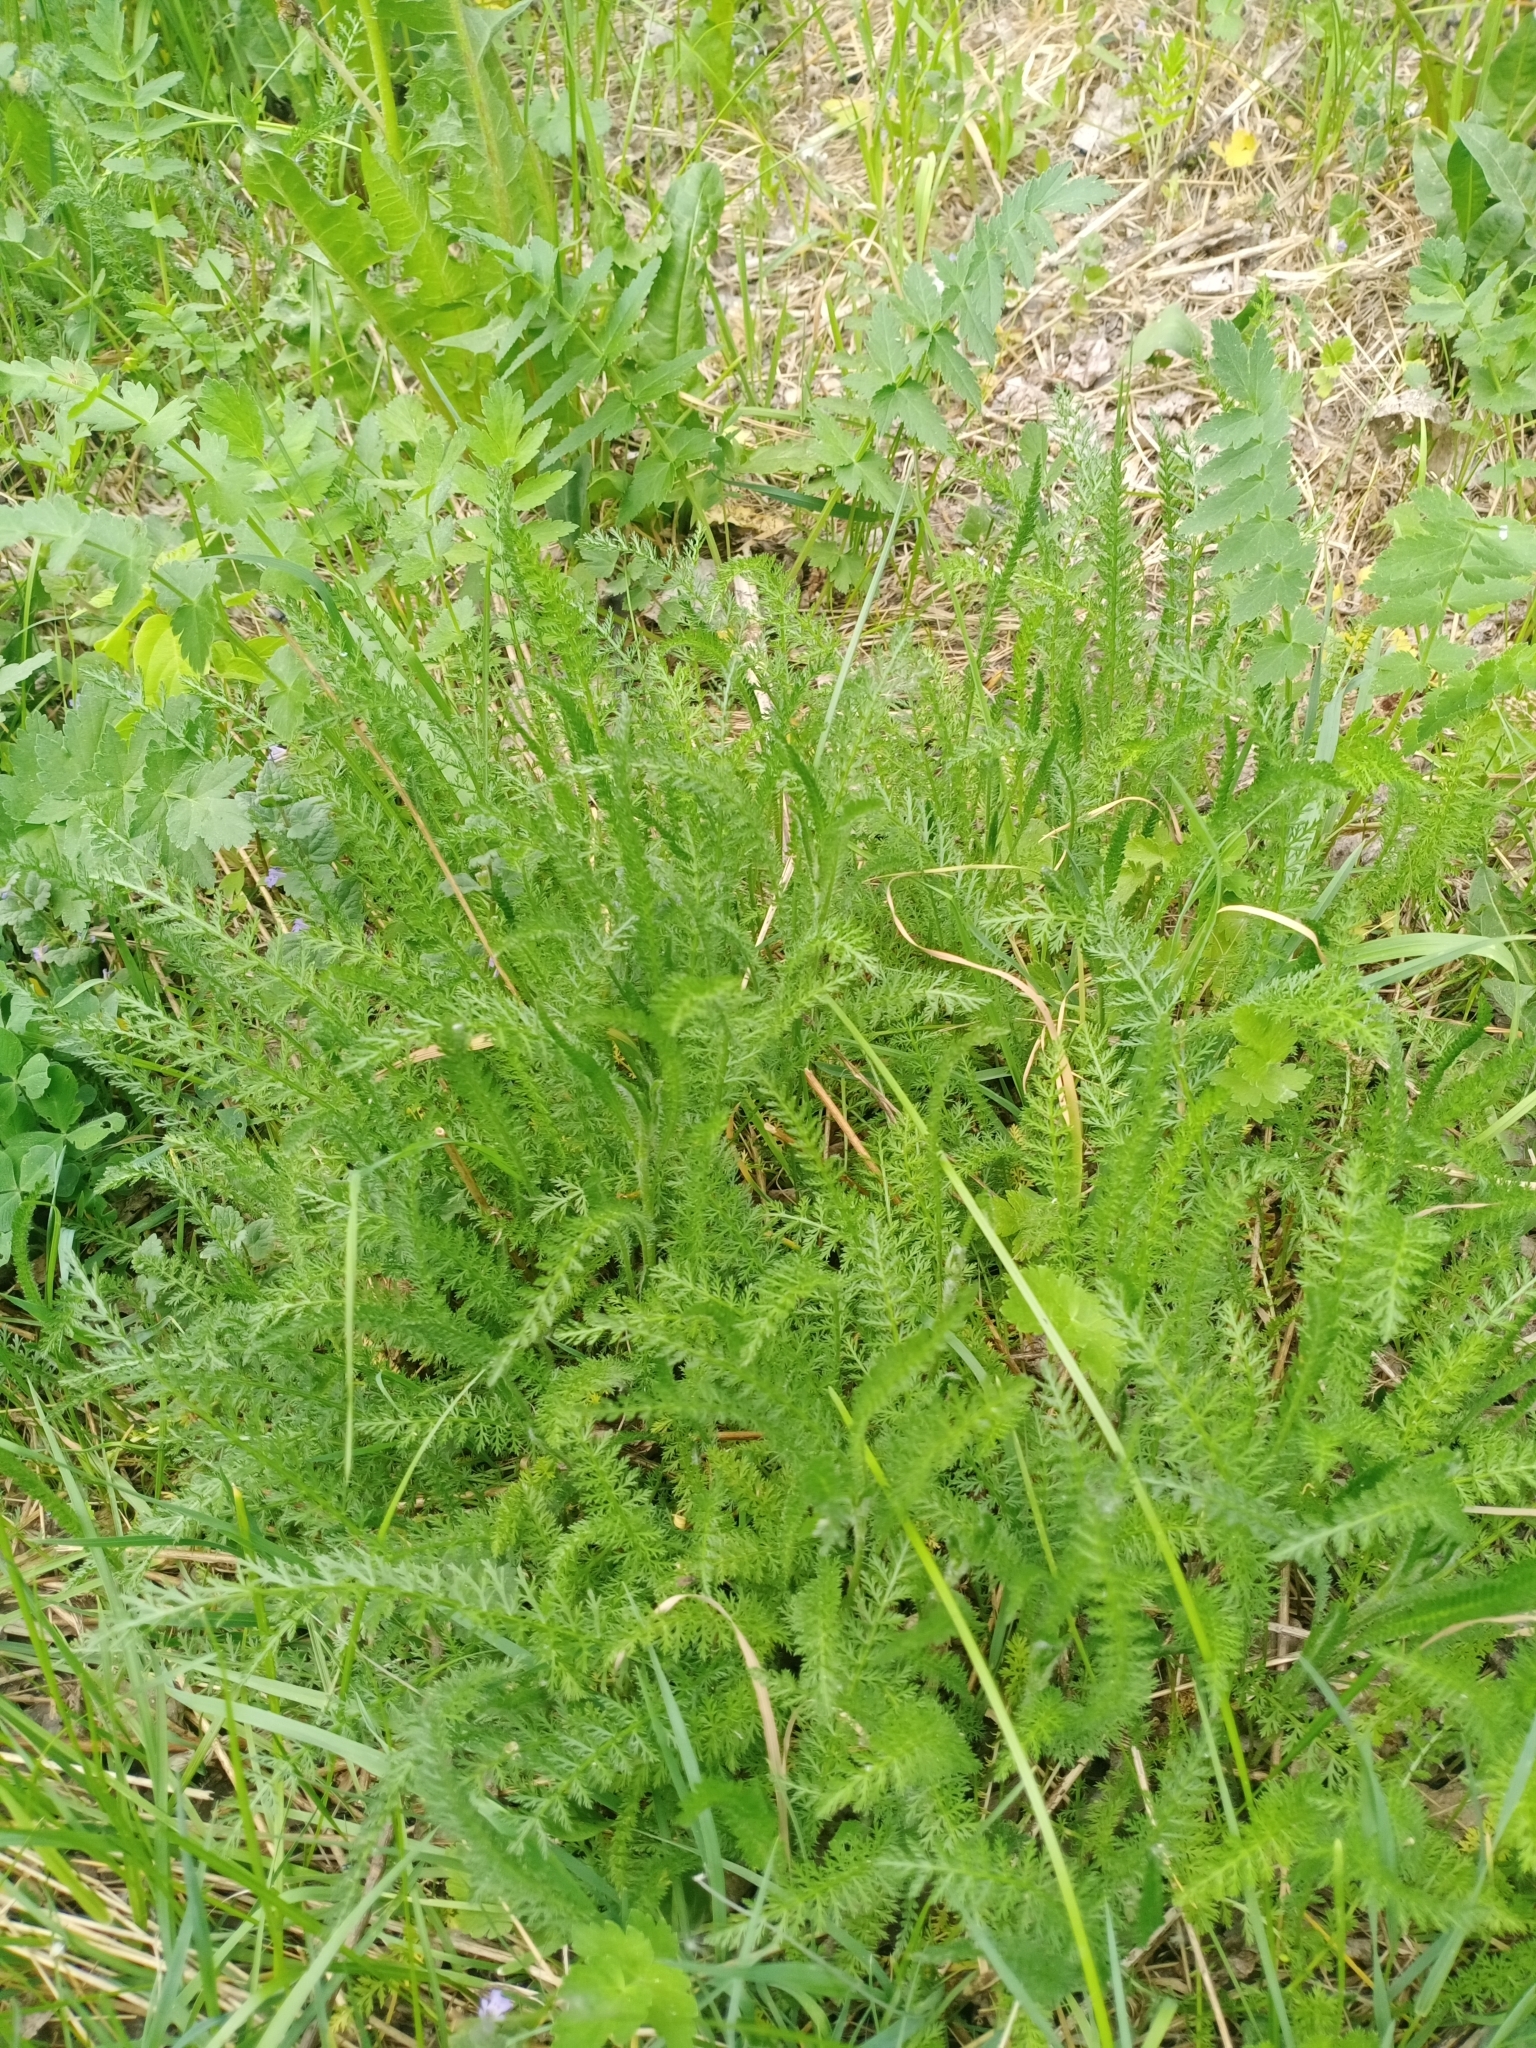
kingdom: Plantae
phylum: Tracheophyta
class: Magnoliopsida
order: Asterales
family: Asteraceae
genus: Achillea
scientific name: Achillea millefolium
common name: Yarrow
